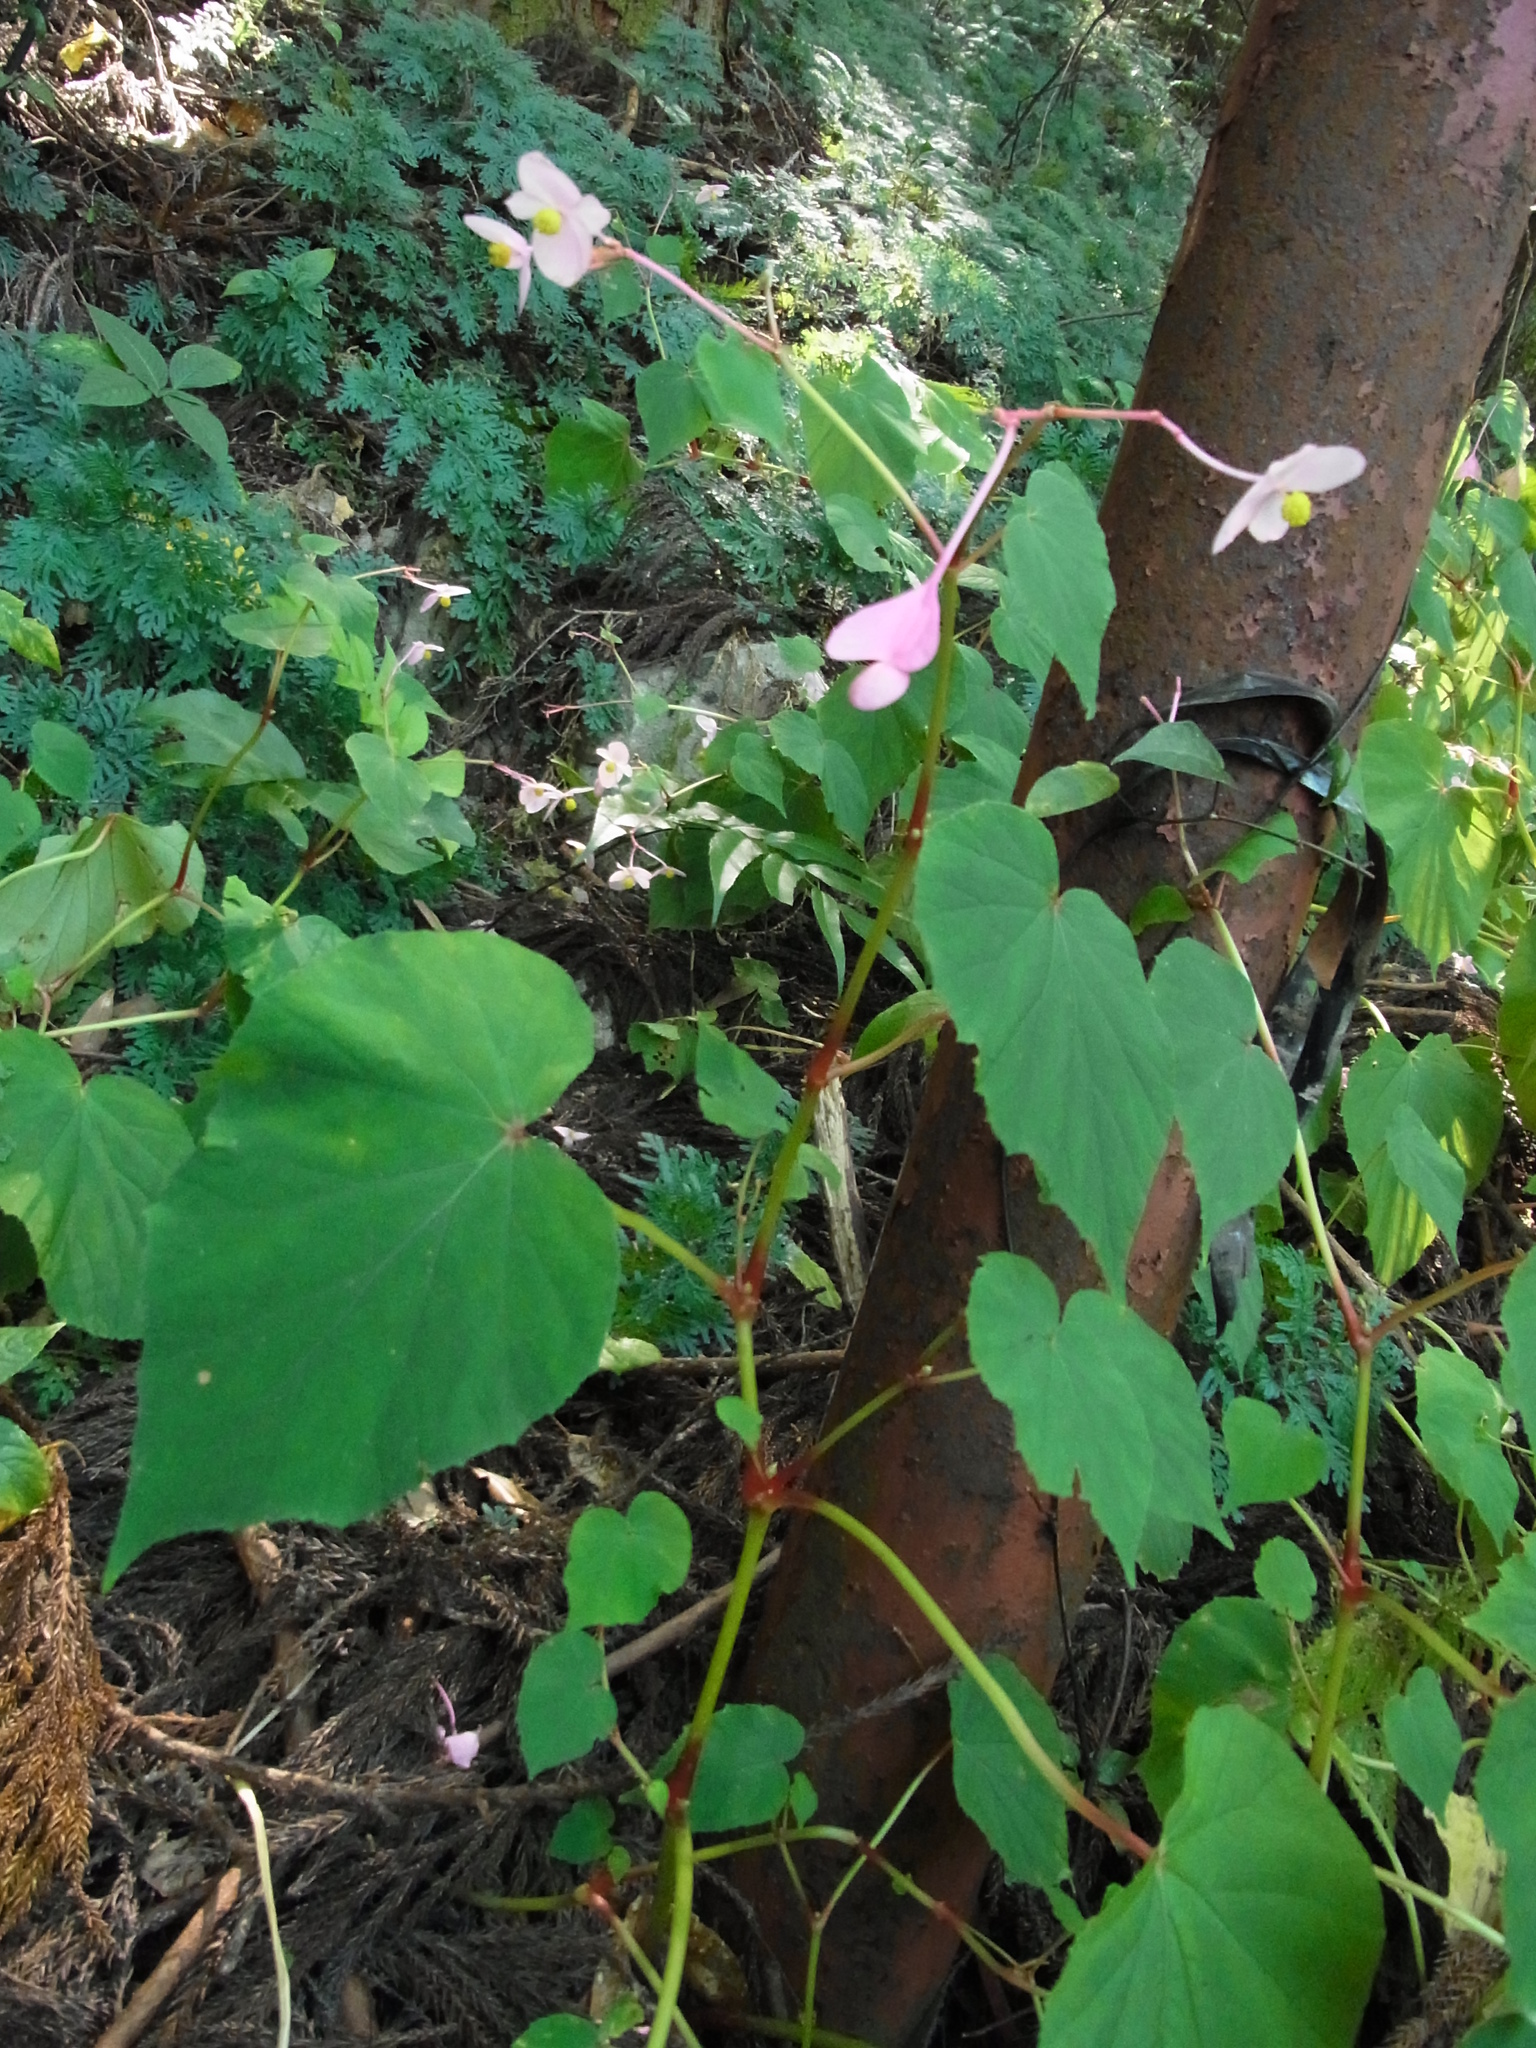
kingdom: Plantae
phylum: Tracheophyta
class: Magnoliopsida
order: Cucurbitales
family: Begoniaceae
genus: Begonia
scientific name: Begonia grandis
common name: Hardy begonia
